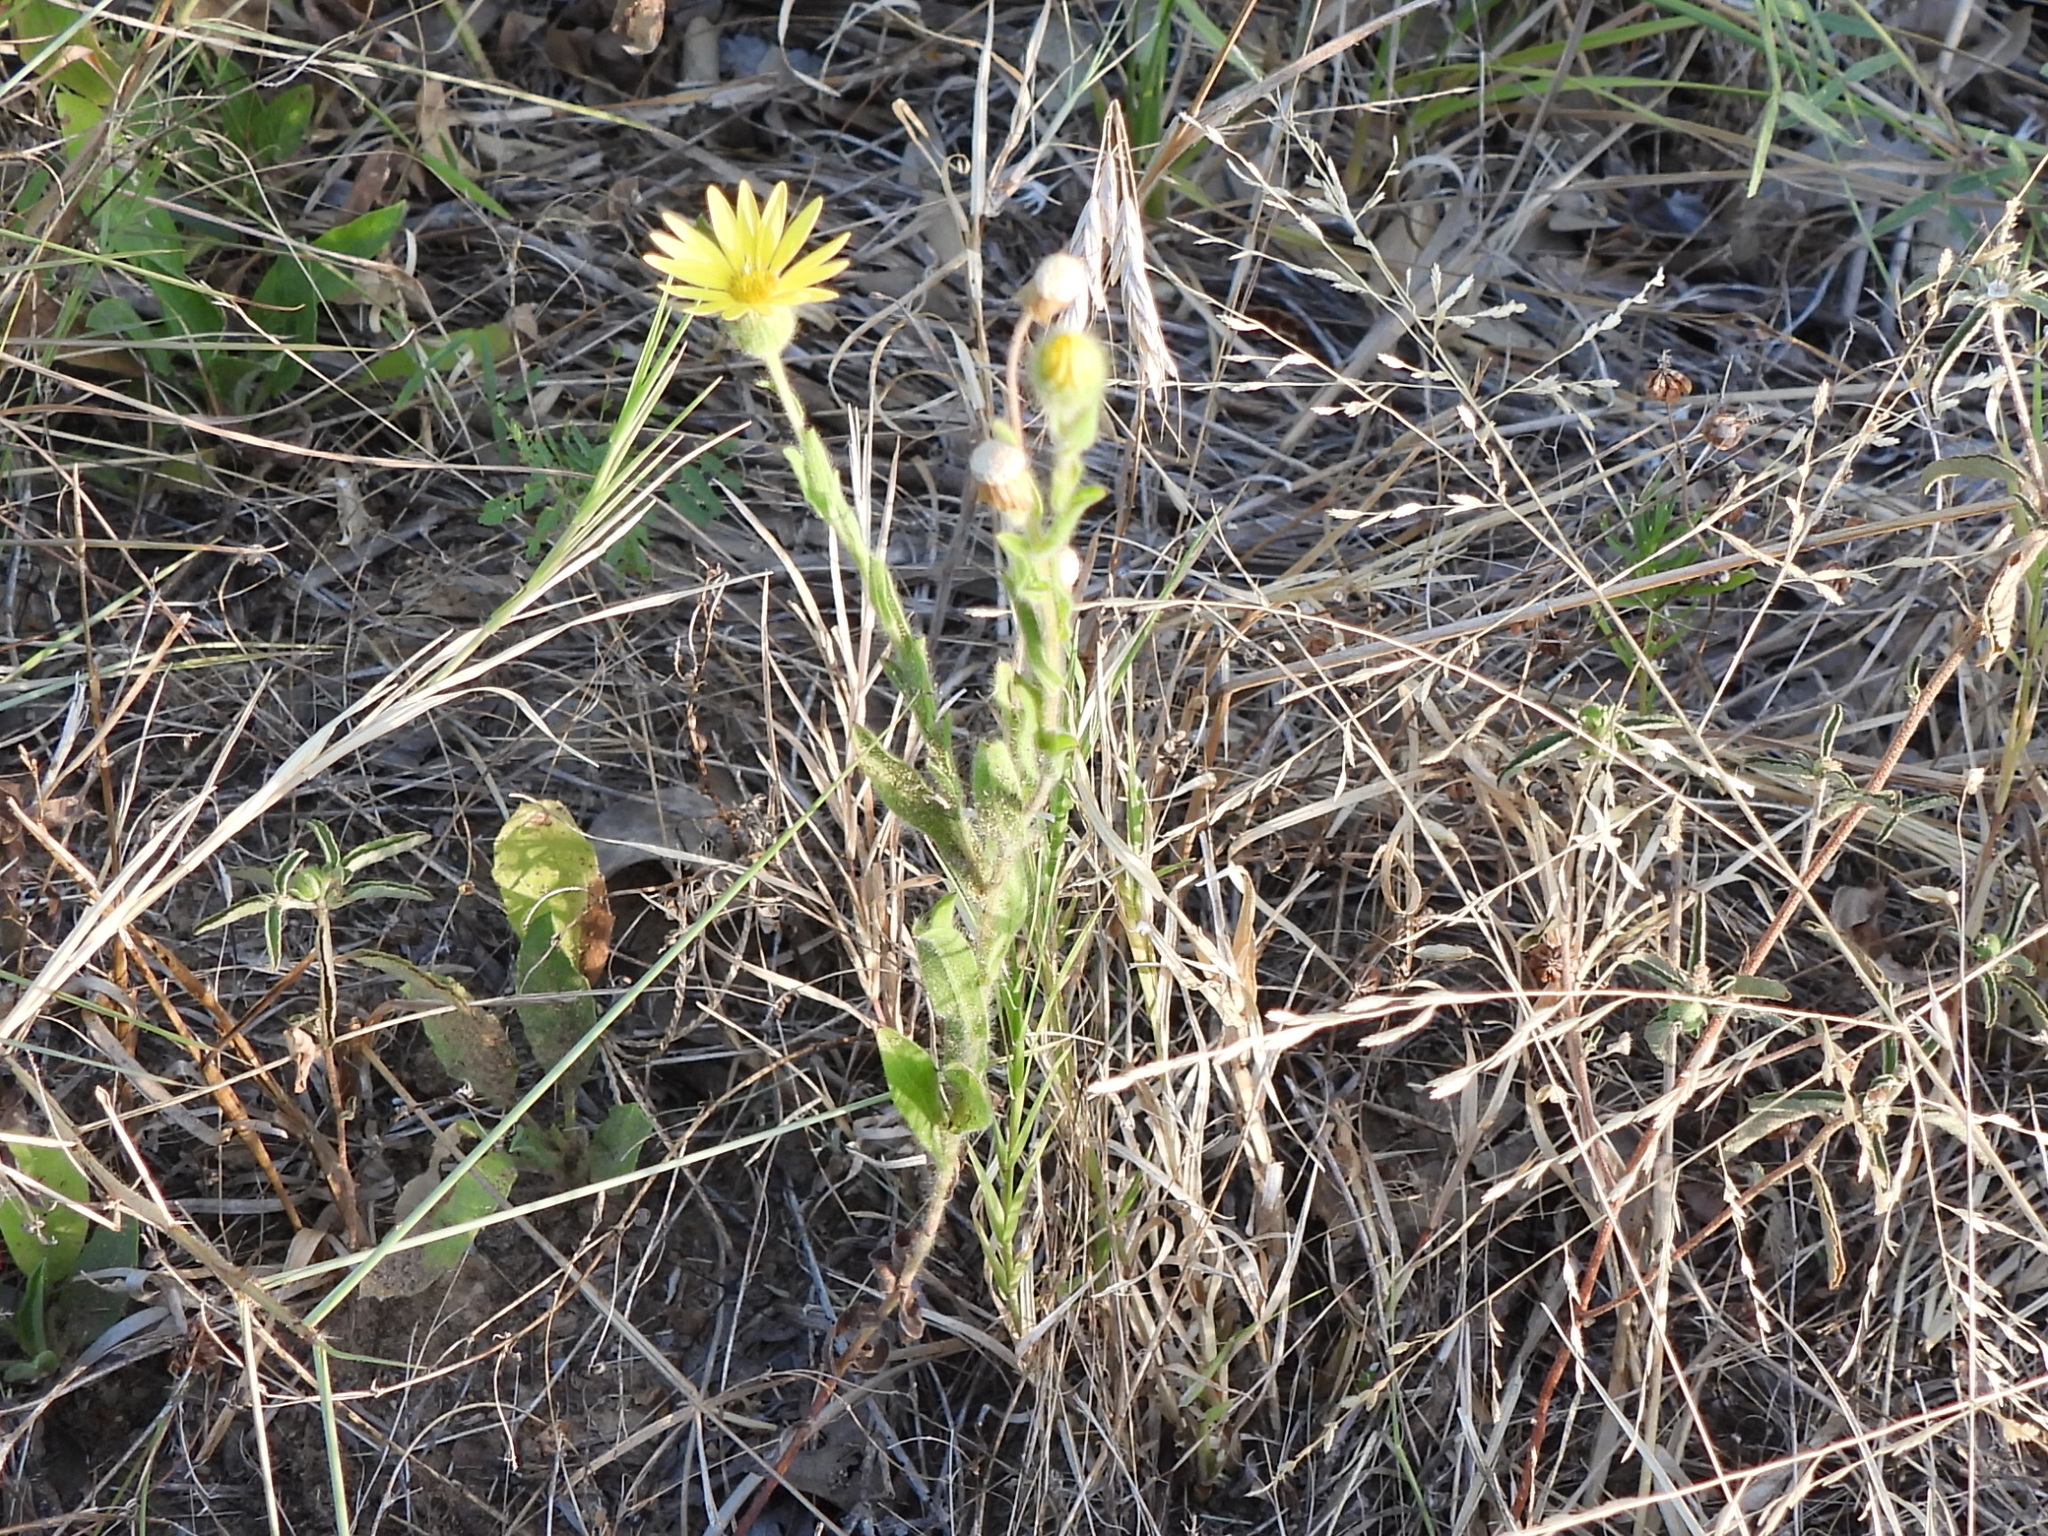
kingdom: Plantae
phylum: Tracheophyta
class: Magnoliopsida
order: Asterales
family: Asteraceae
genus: Bradburia
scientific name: Bradburia pilosa
